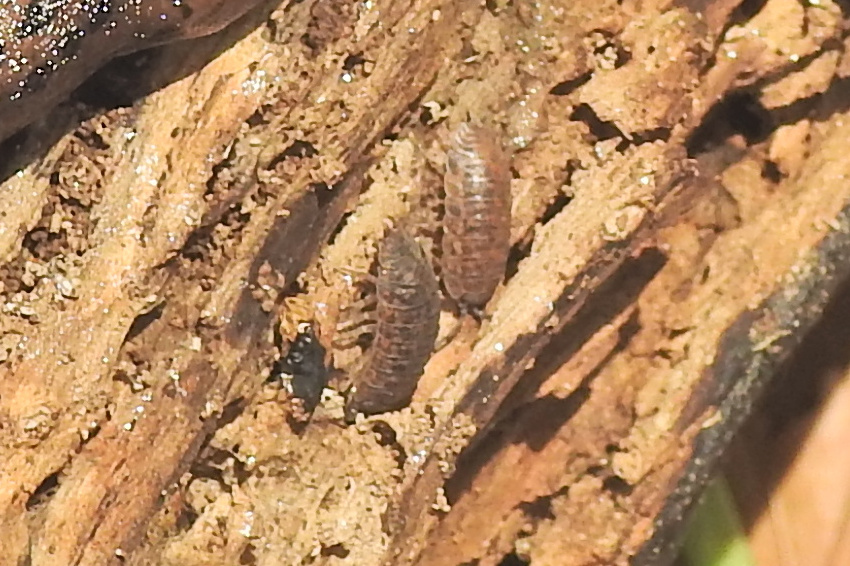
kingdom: Animalia
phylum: Arthropoda
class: Malacostraca
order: Isopoda
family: Trachelipodidae
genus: Trachelipus
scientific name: Trachelipus rathkii
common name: Isopod
